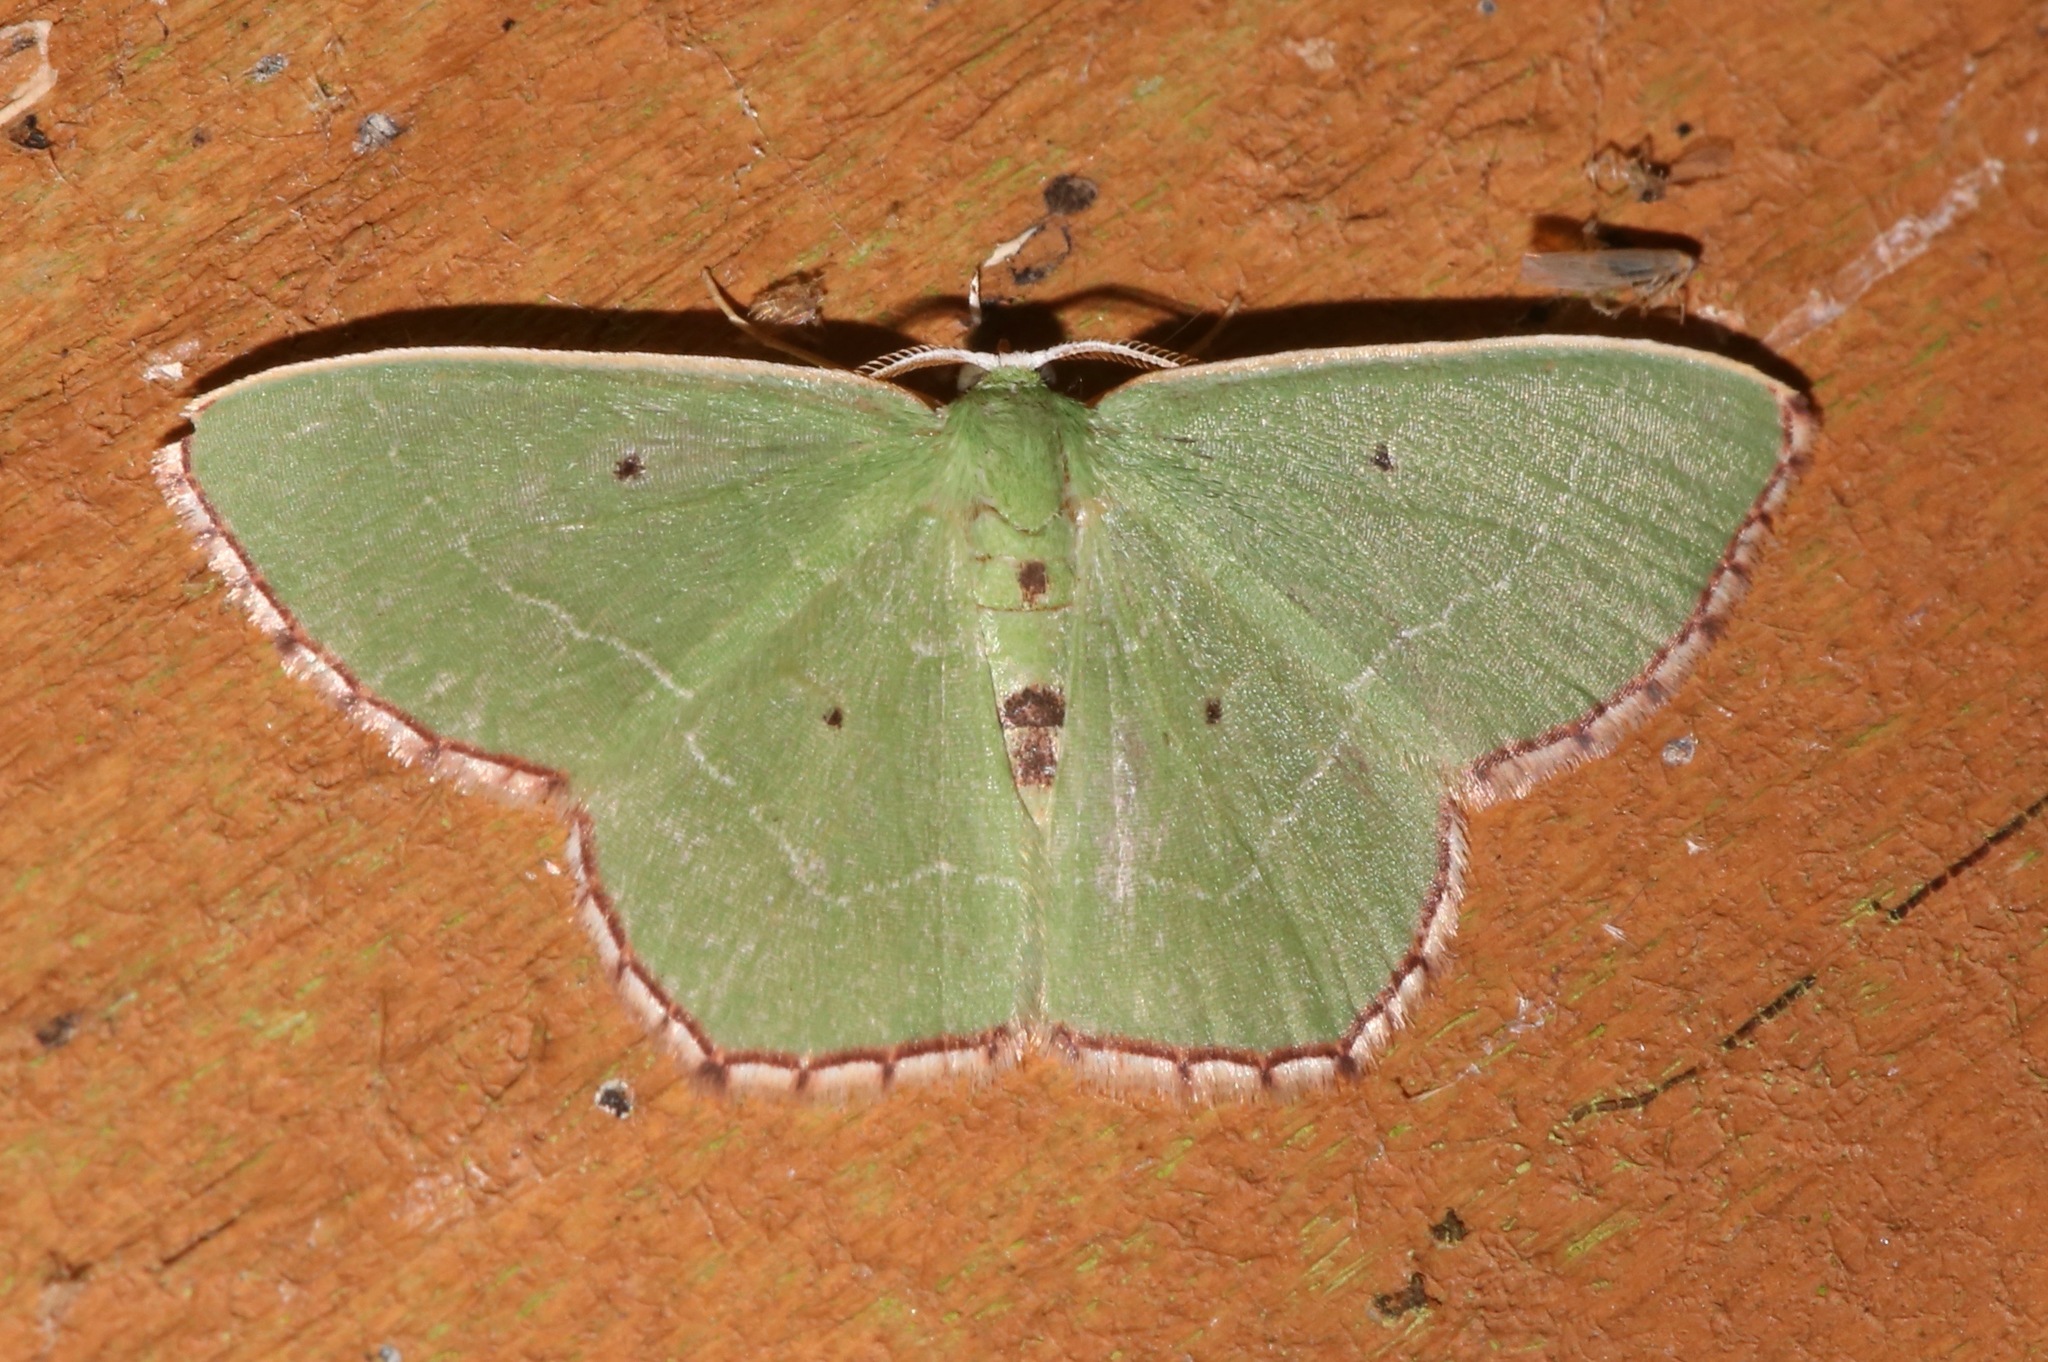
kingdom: Animalia
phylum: Arthropoda
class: Insecta
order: Lepidoptera
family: Geometridae
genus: Nemoria
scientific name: Nemoria saturiba
